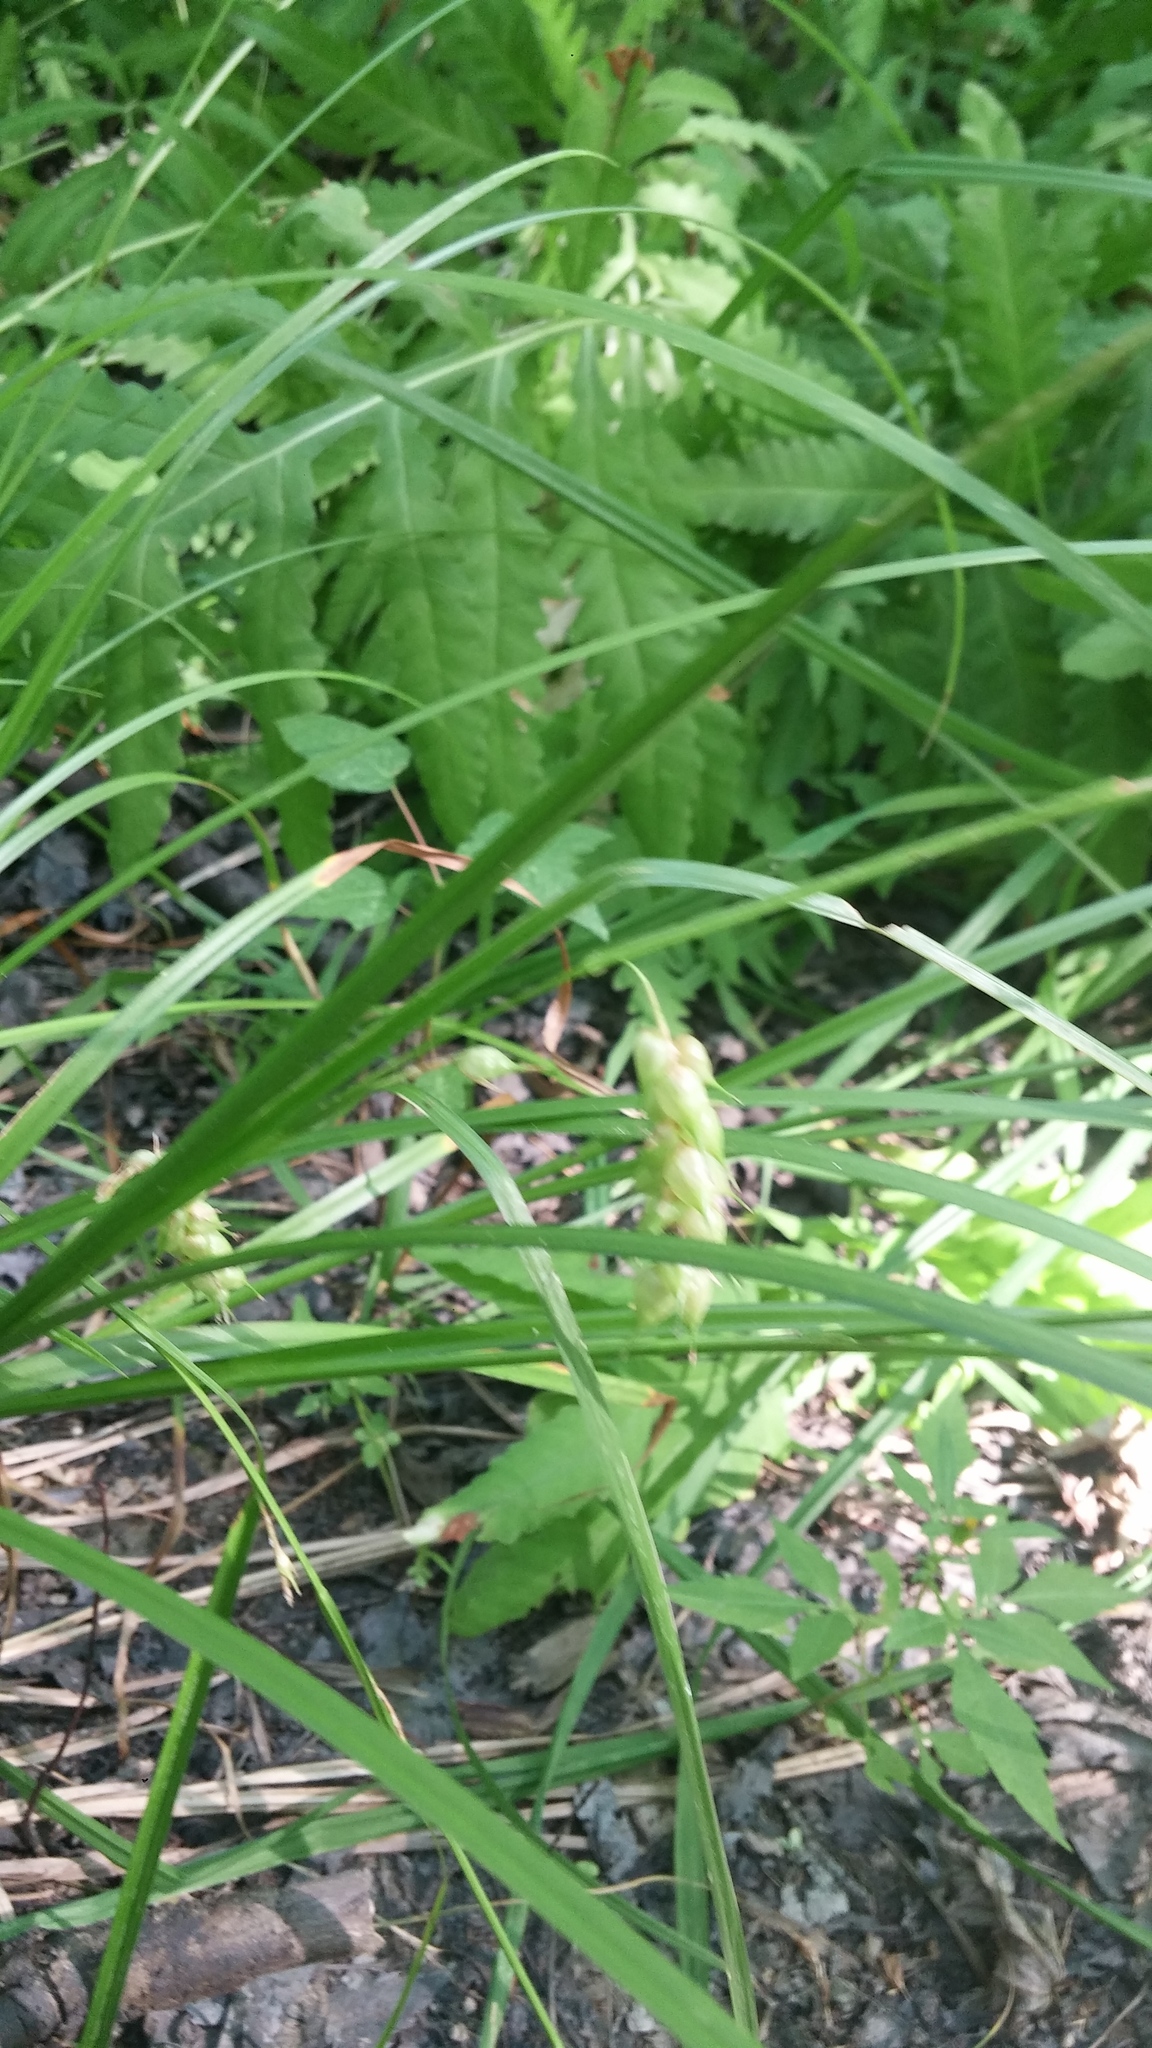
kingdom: Plantae
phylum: Tracheophyta
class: Liliopsida
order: Poales
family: Cyperaceae
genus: Carex
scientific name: Carex tuckermanii
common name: Tuckerman's sedge
